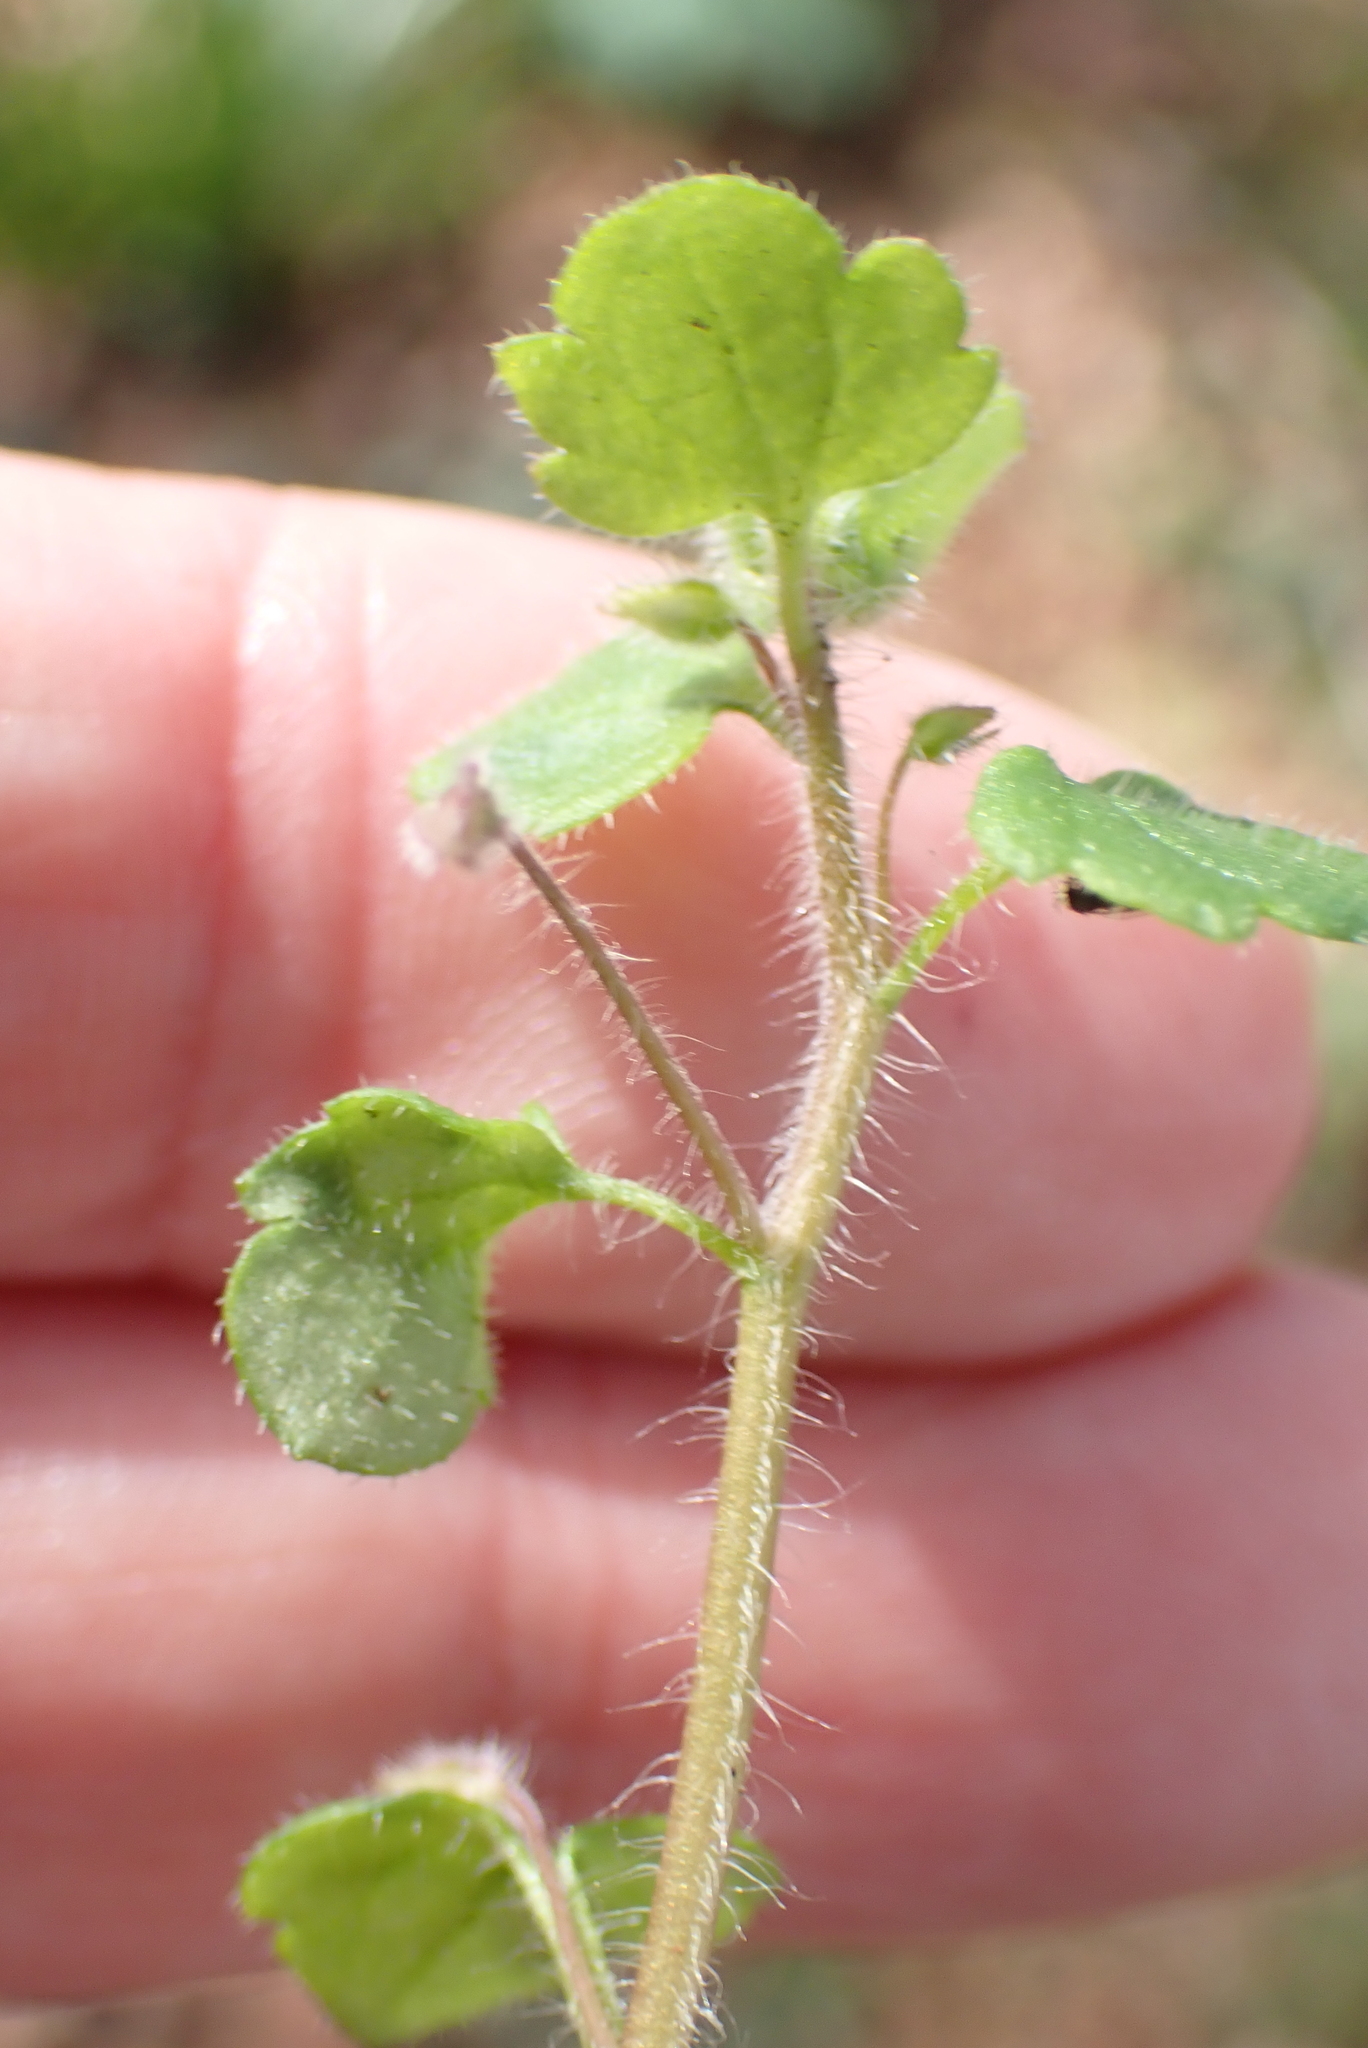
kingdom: Plantae
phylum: Tracheophyta
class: Magnoliopsida
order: Lamiales
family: Plantaginaceae
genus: Veronica
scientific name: Veronica sublobata
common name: False ivy-leaved speedwell
